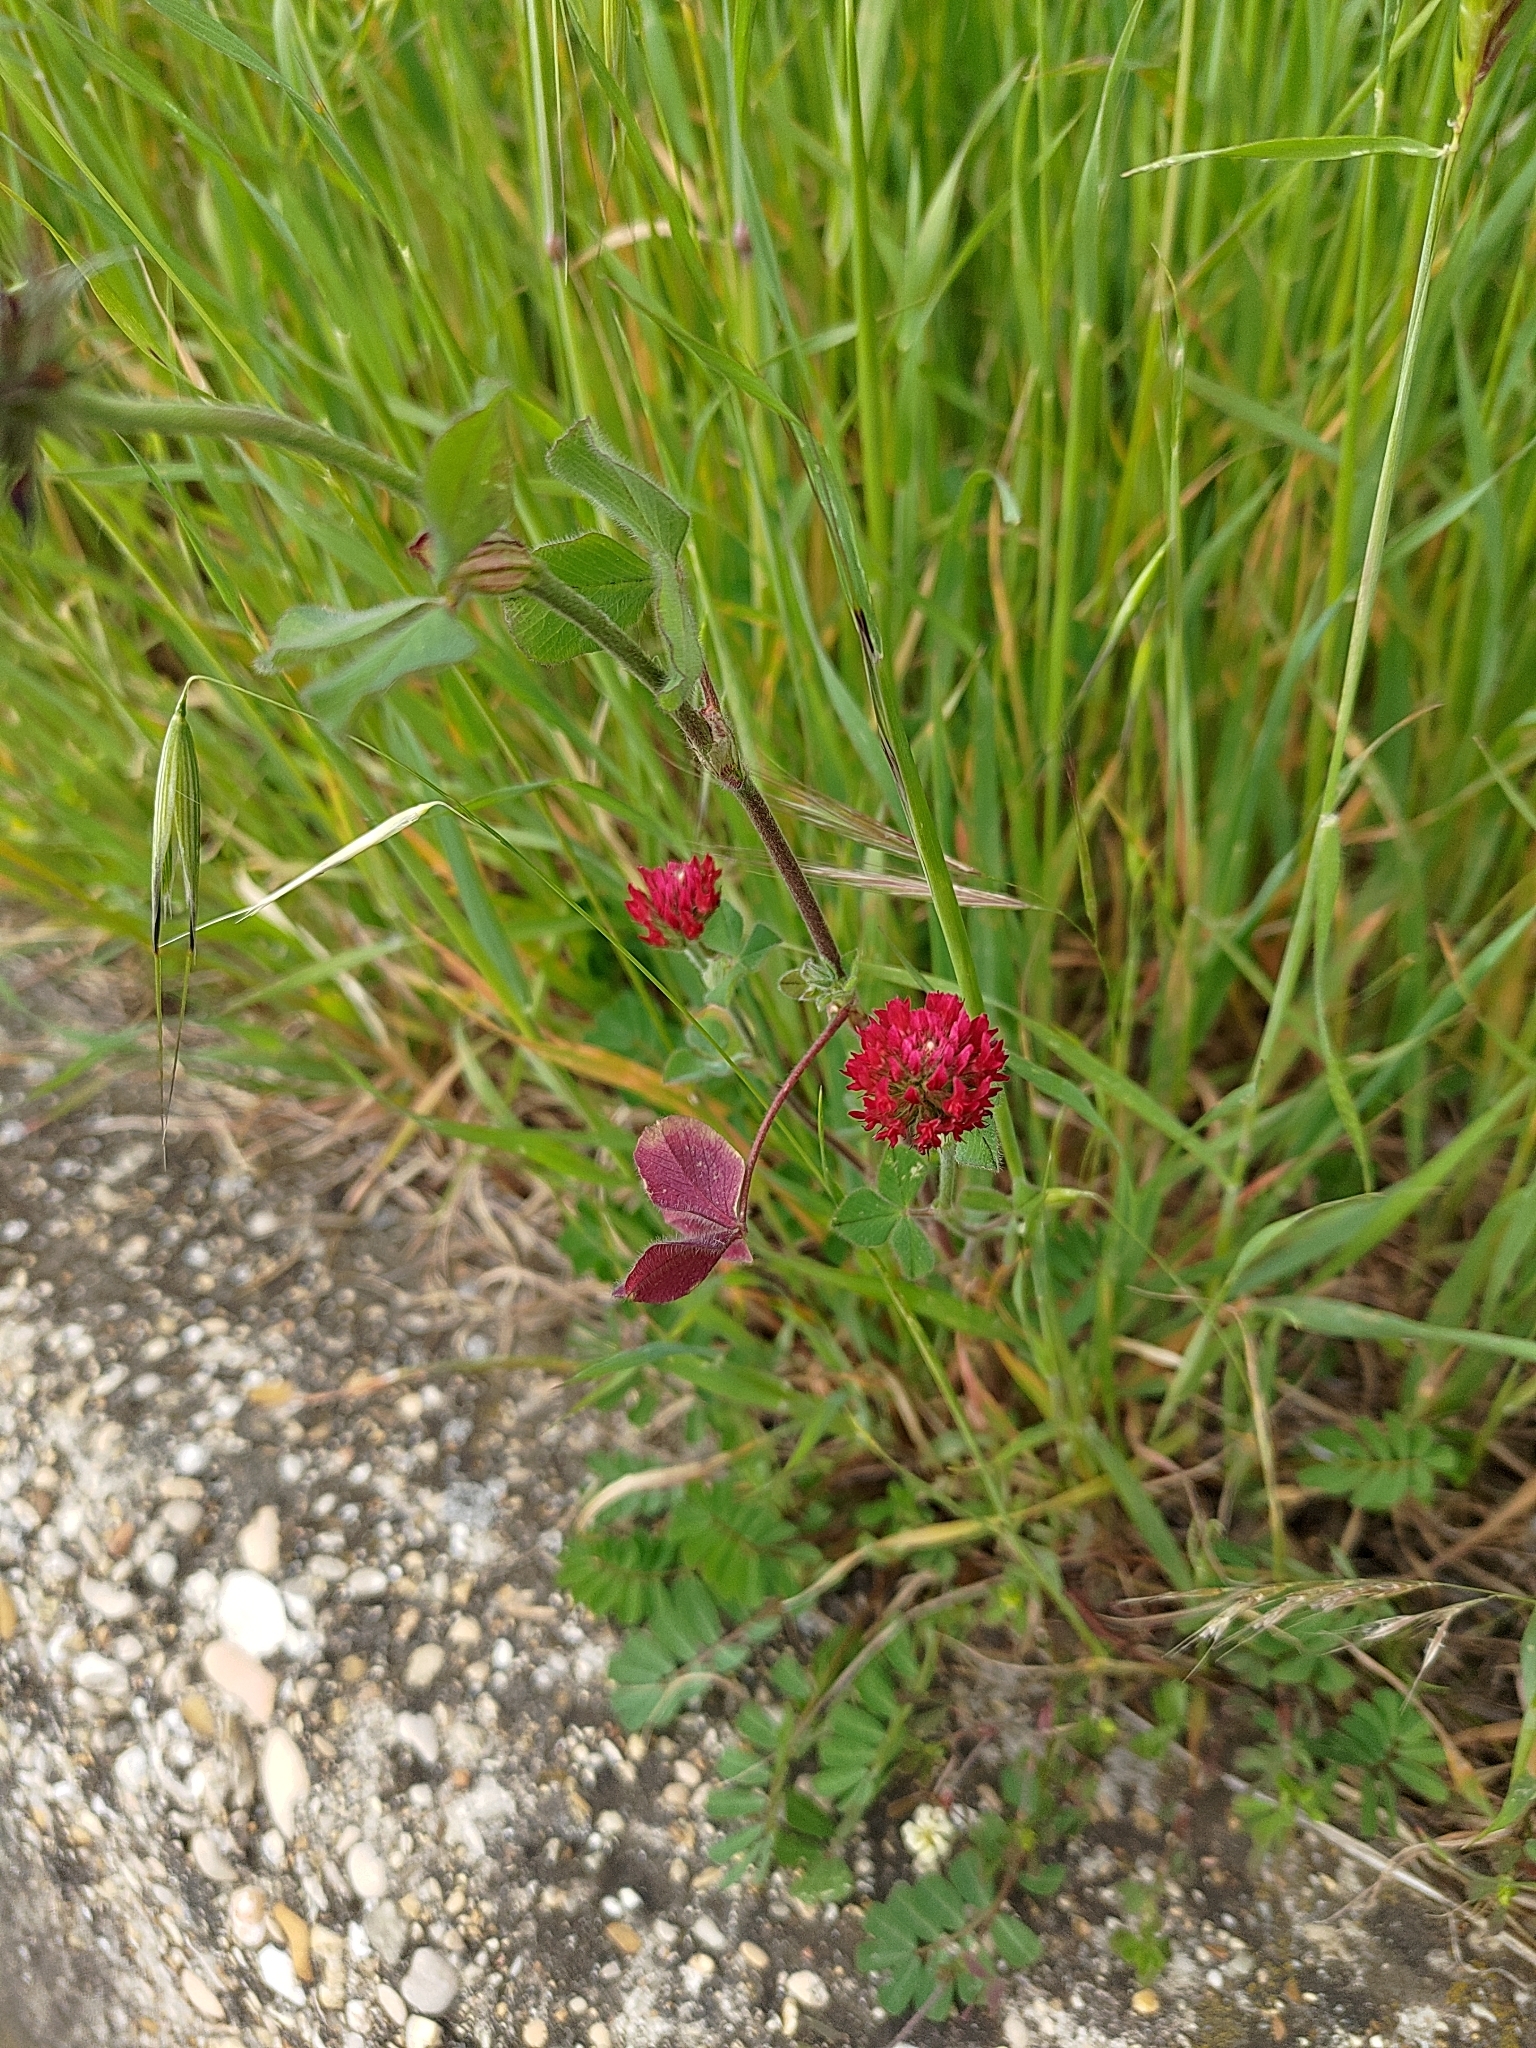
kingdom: Plantae
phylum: Tracheophyta
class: Magnoliopsida
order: Fabales
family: Fabaceae
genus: Trifolium
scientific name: Trifolium incarnatum
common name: Crimson clover
